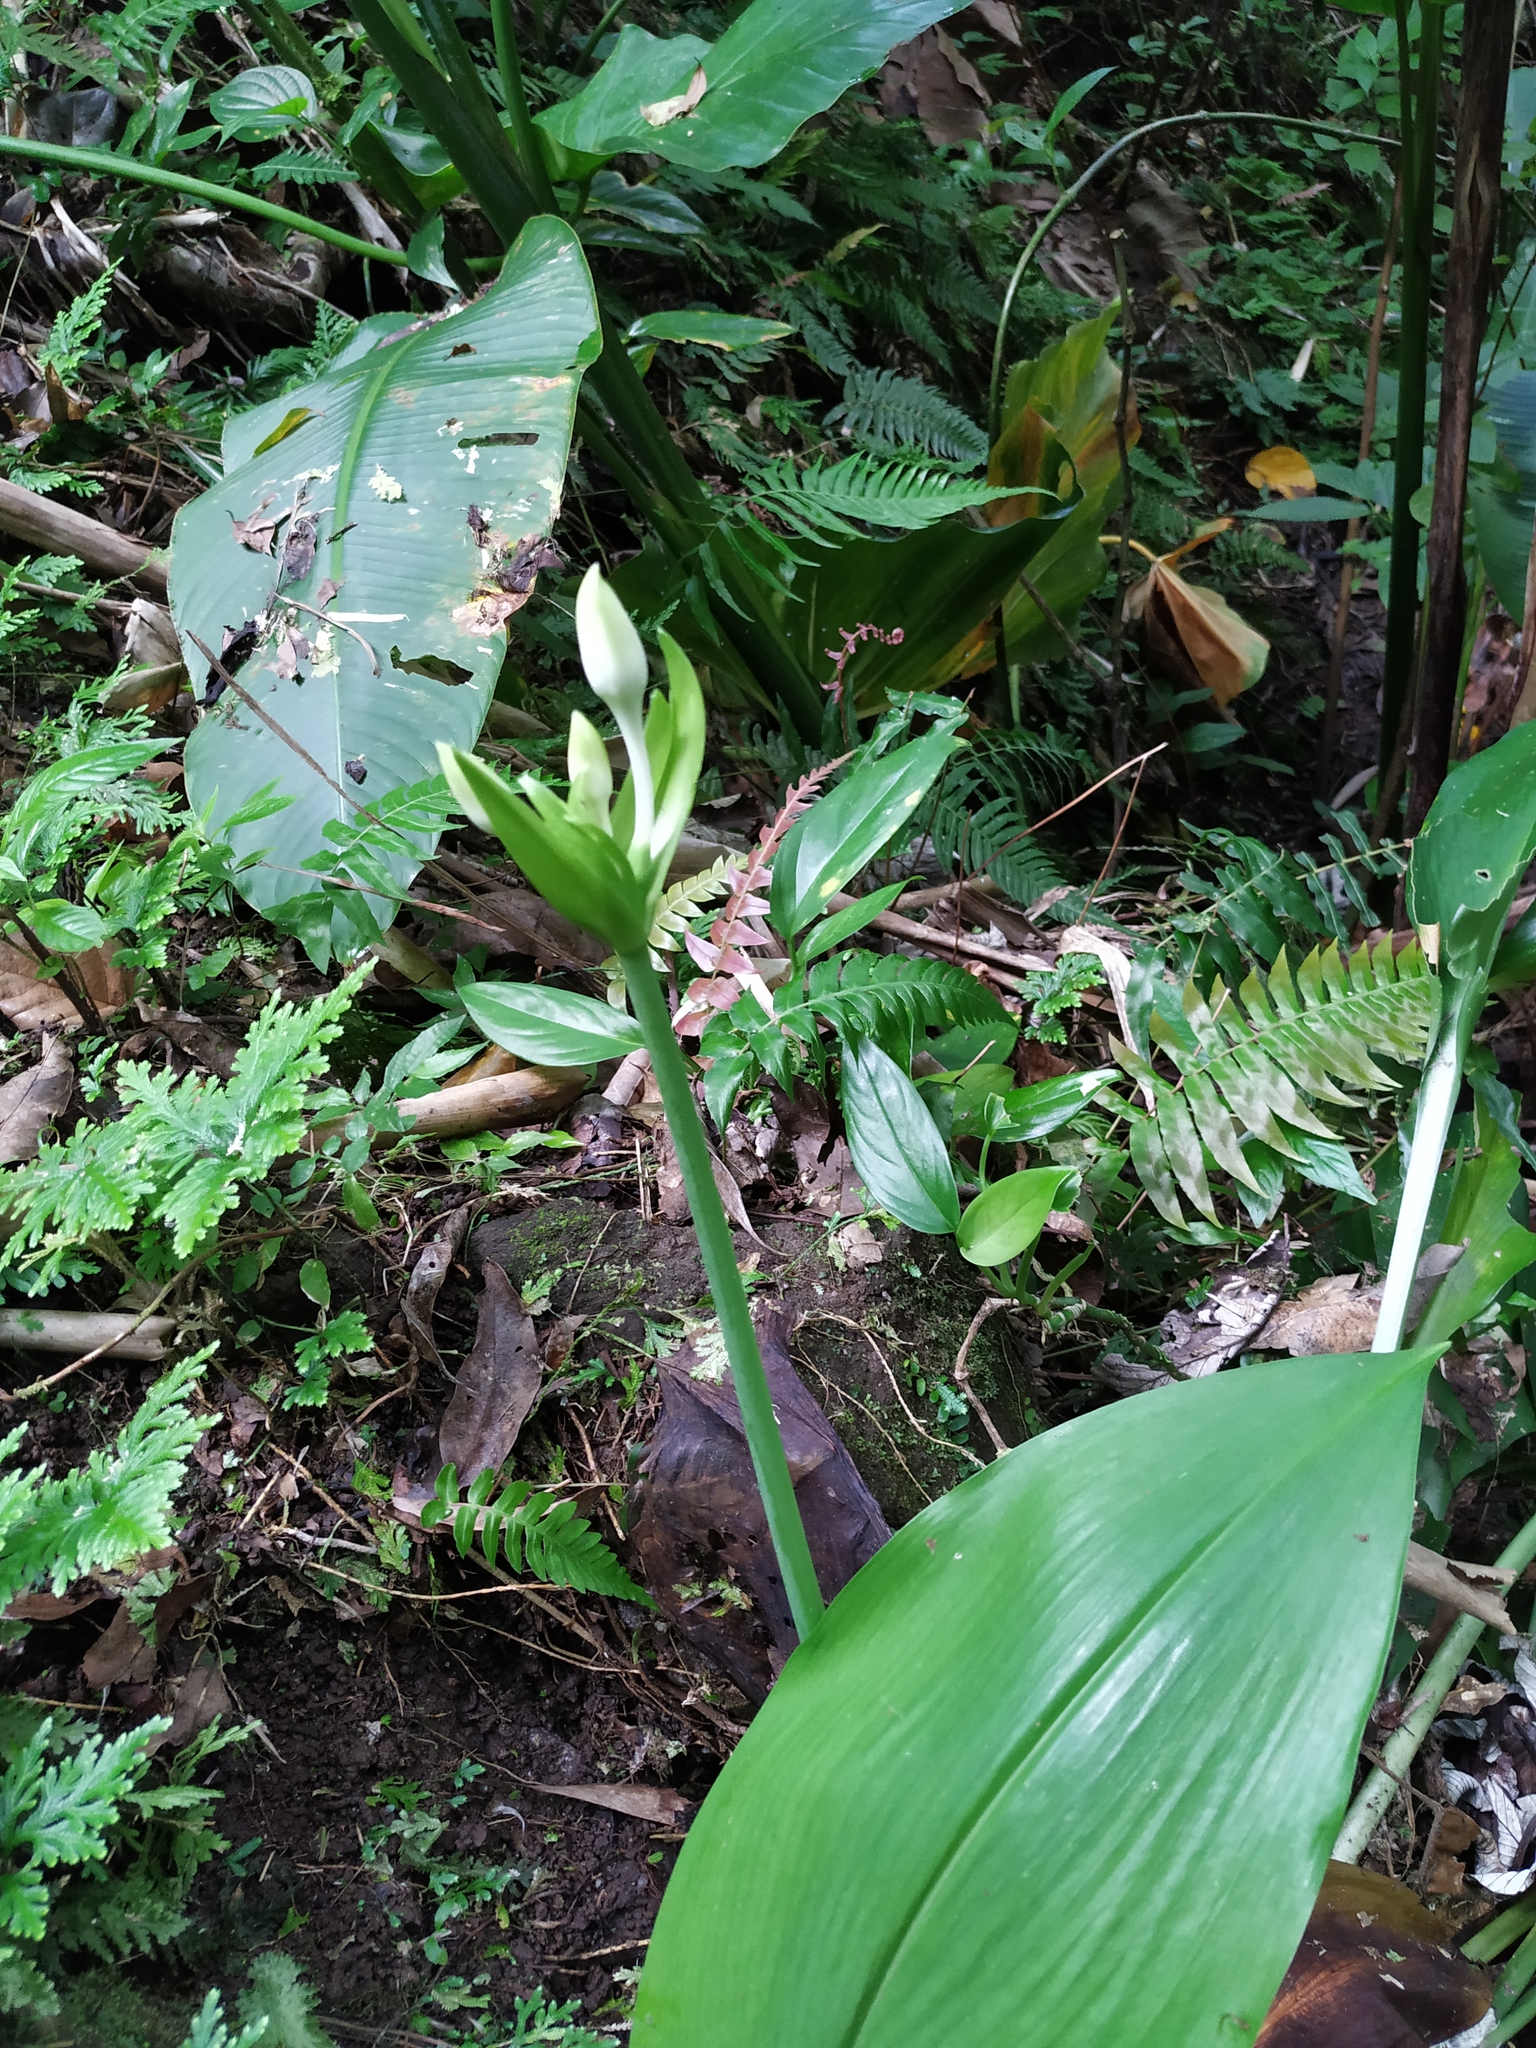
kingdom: Plantae
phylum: Tracheophyta
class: Liliopsida
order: Asparagales
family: Amaryllidaceae
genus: Urceolina
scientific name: Urceolina amazonica
